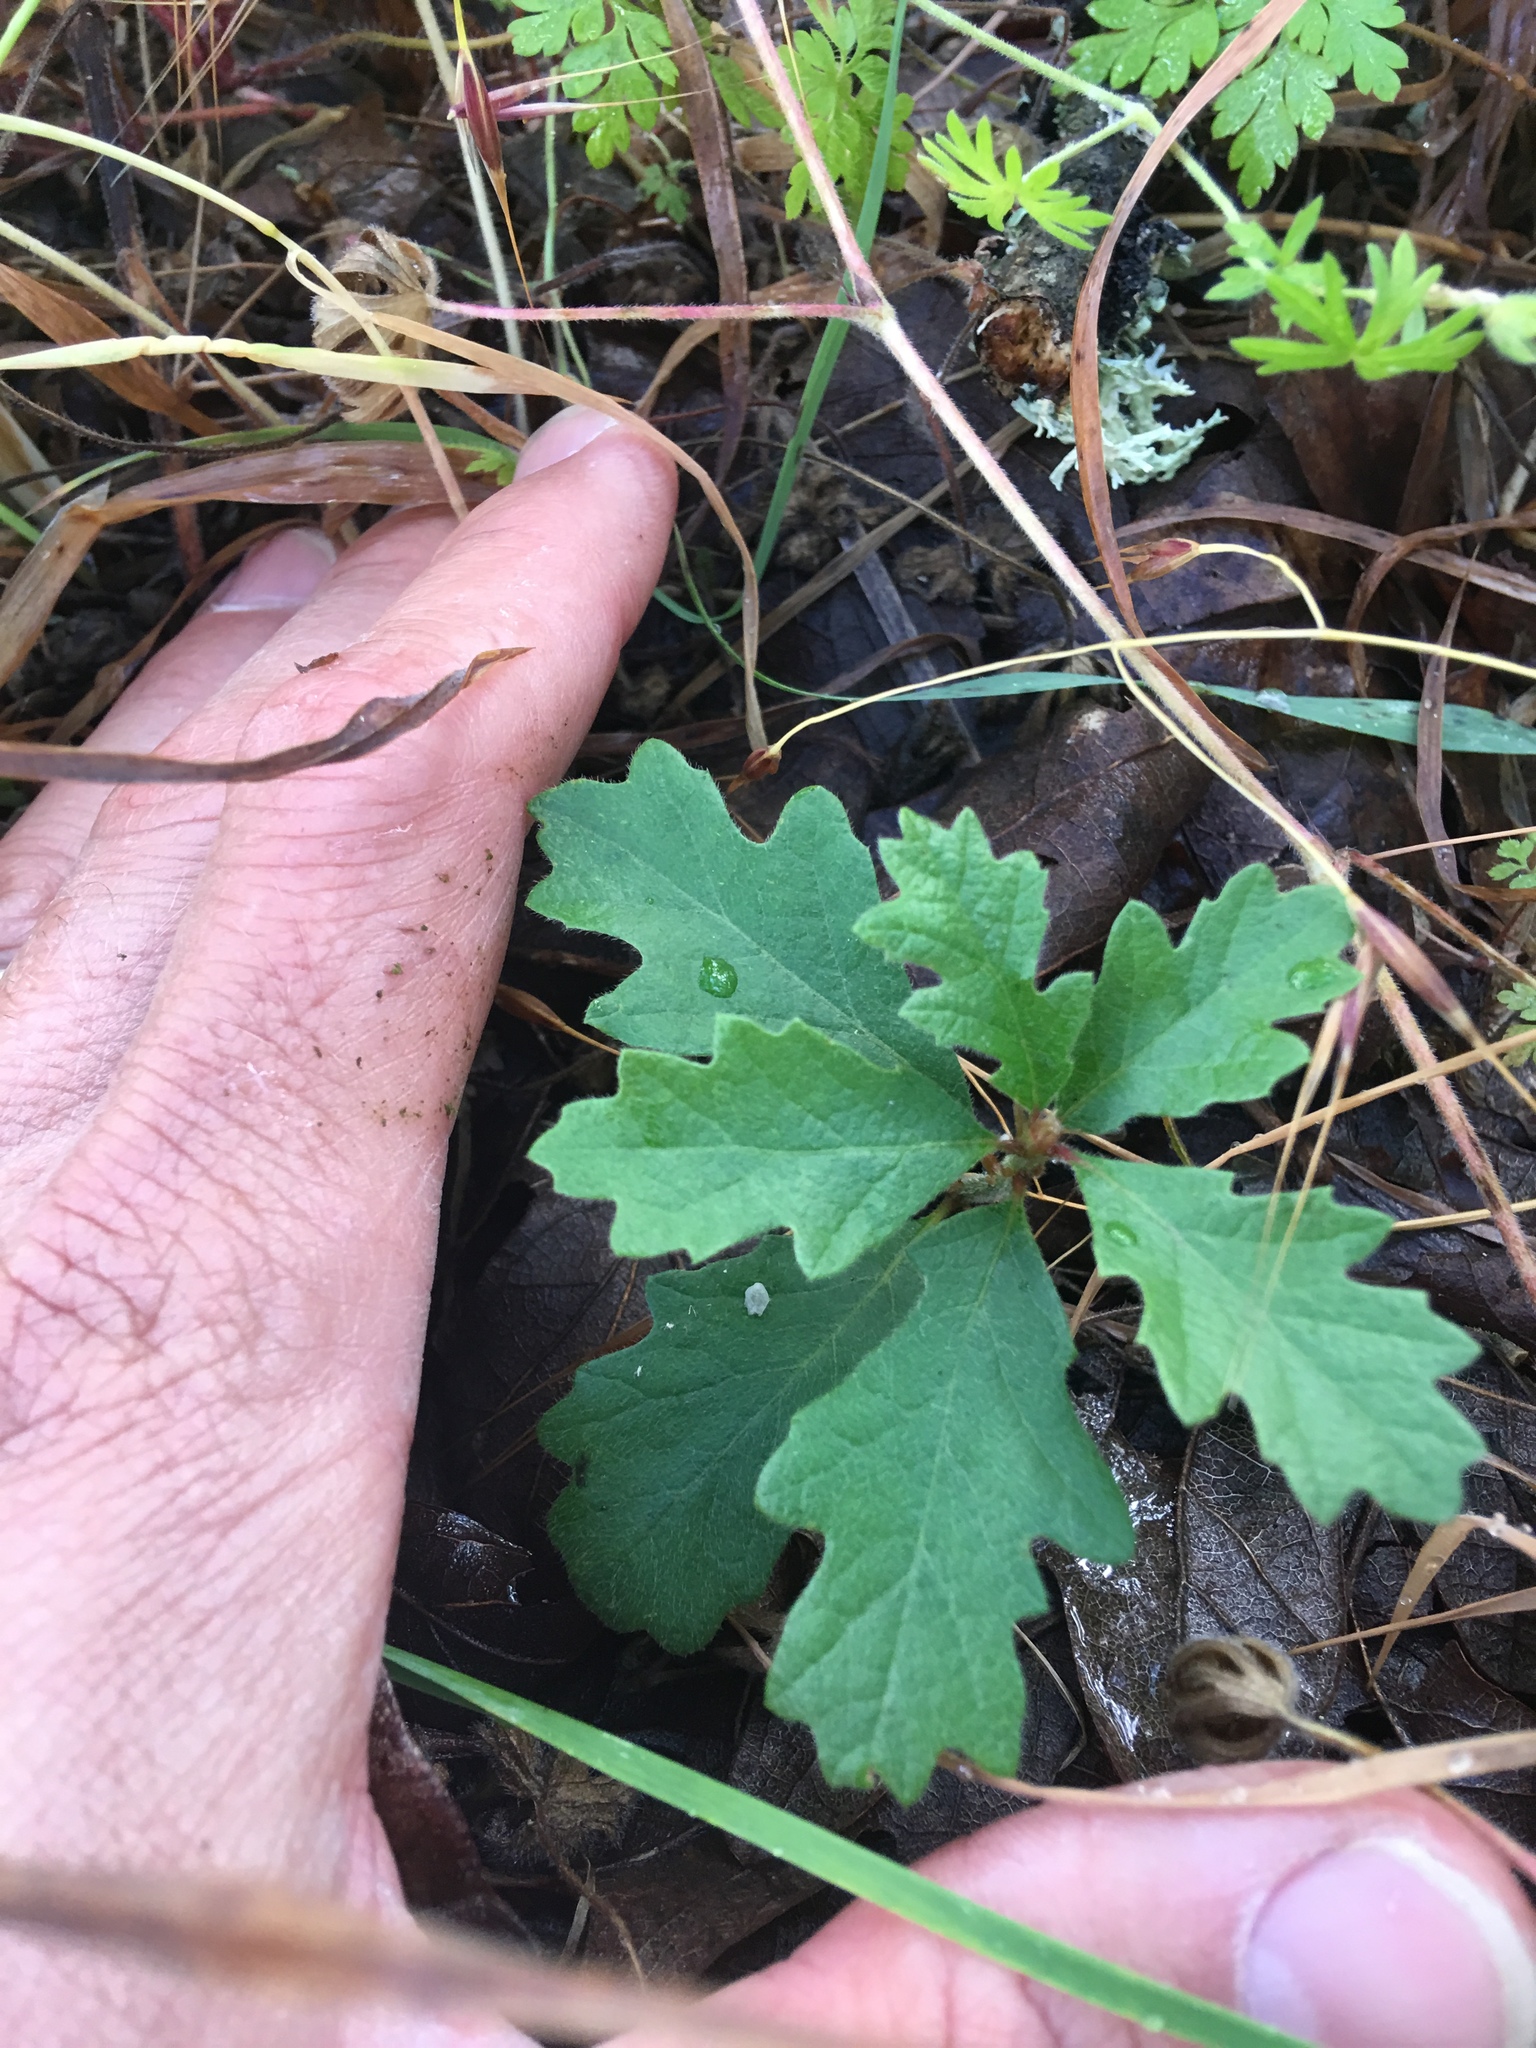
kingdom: Plantae
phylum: Tracheophyta
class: Magnoliopsida
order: Fagales
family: Fagaceae
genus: Quercus
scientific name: Quercus garryana
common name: Garry oak
